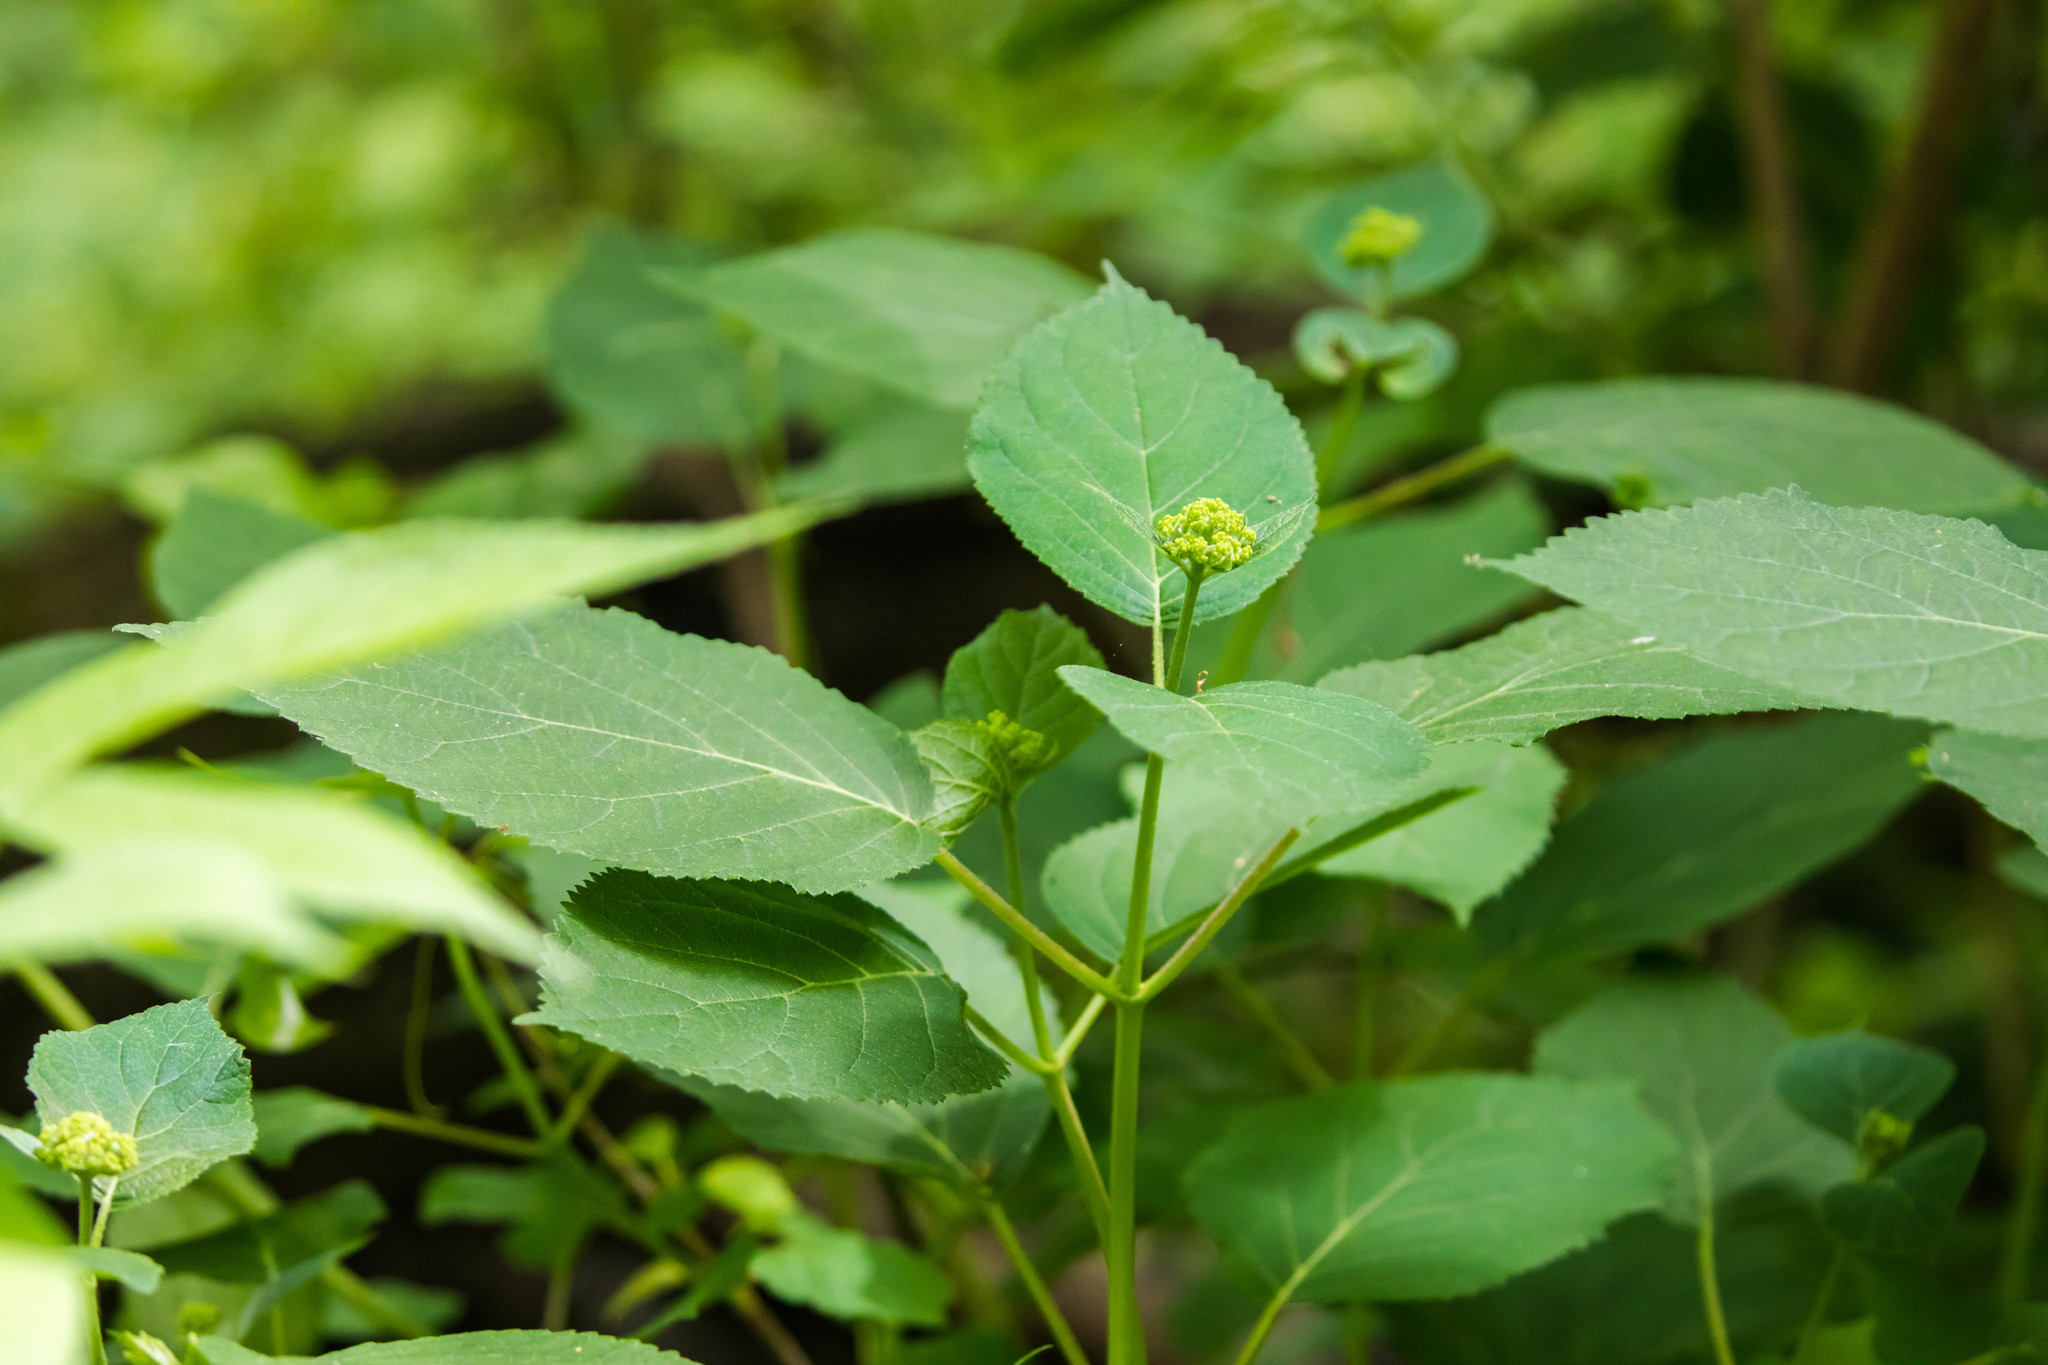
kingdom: Plantae
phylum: Tracheophyta
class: Magnoliopsida
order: Cornales
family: Hydrangeaceae
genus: Hydrangea
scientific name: Hydrangea arborescens
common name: Sevenbark
